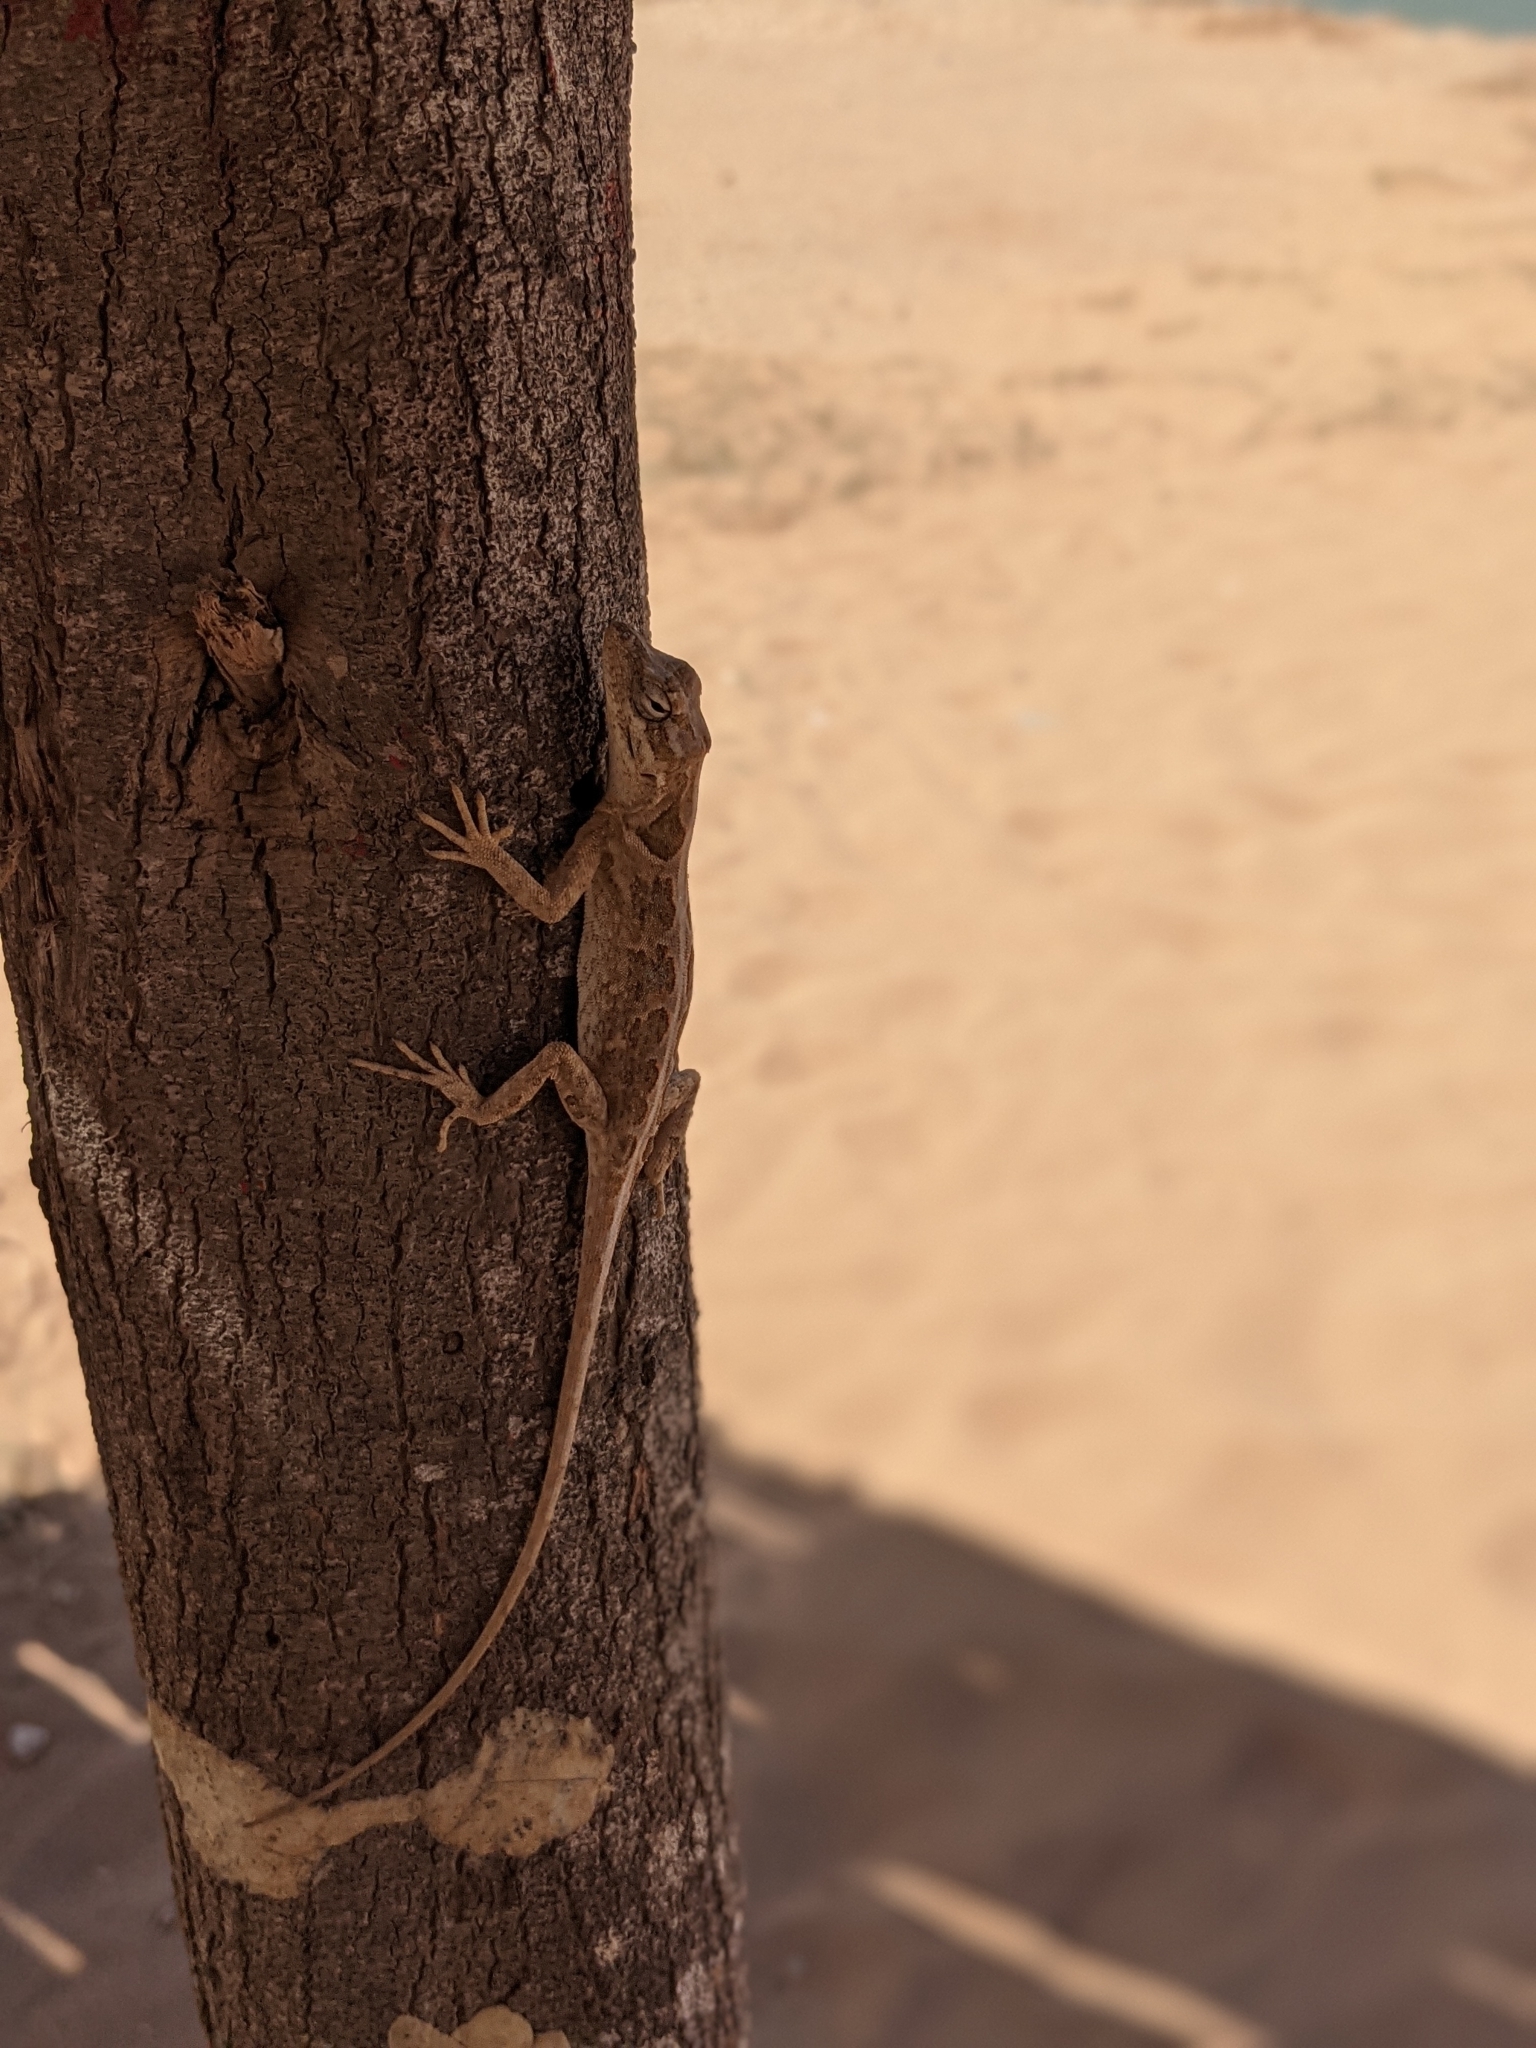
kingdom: Animalia
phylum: Chordata
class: Squamata
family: Dactyloidae
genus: Anolis
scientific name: Anolis onca
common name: Bulky anole
